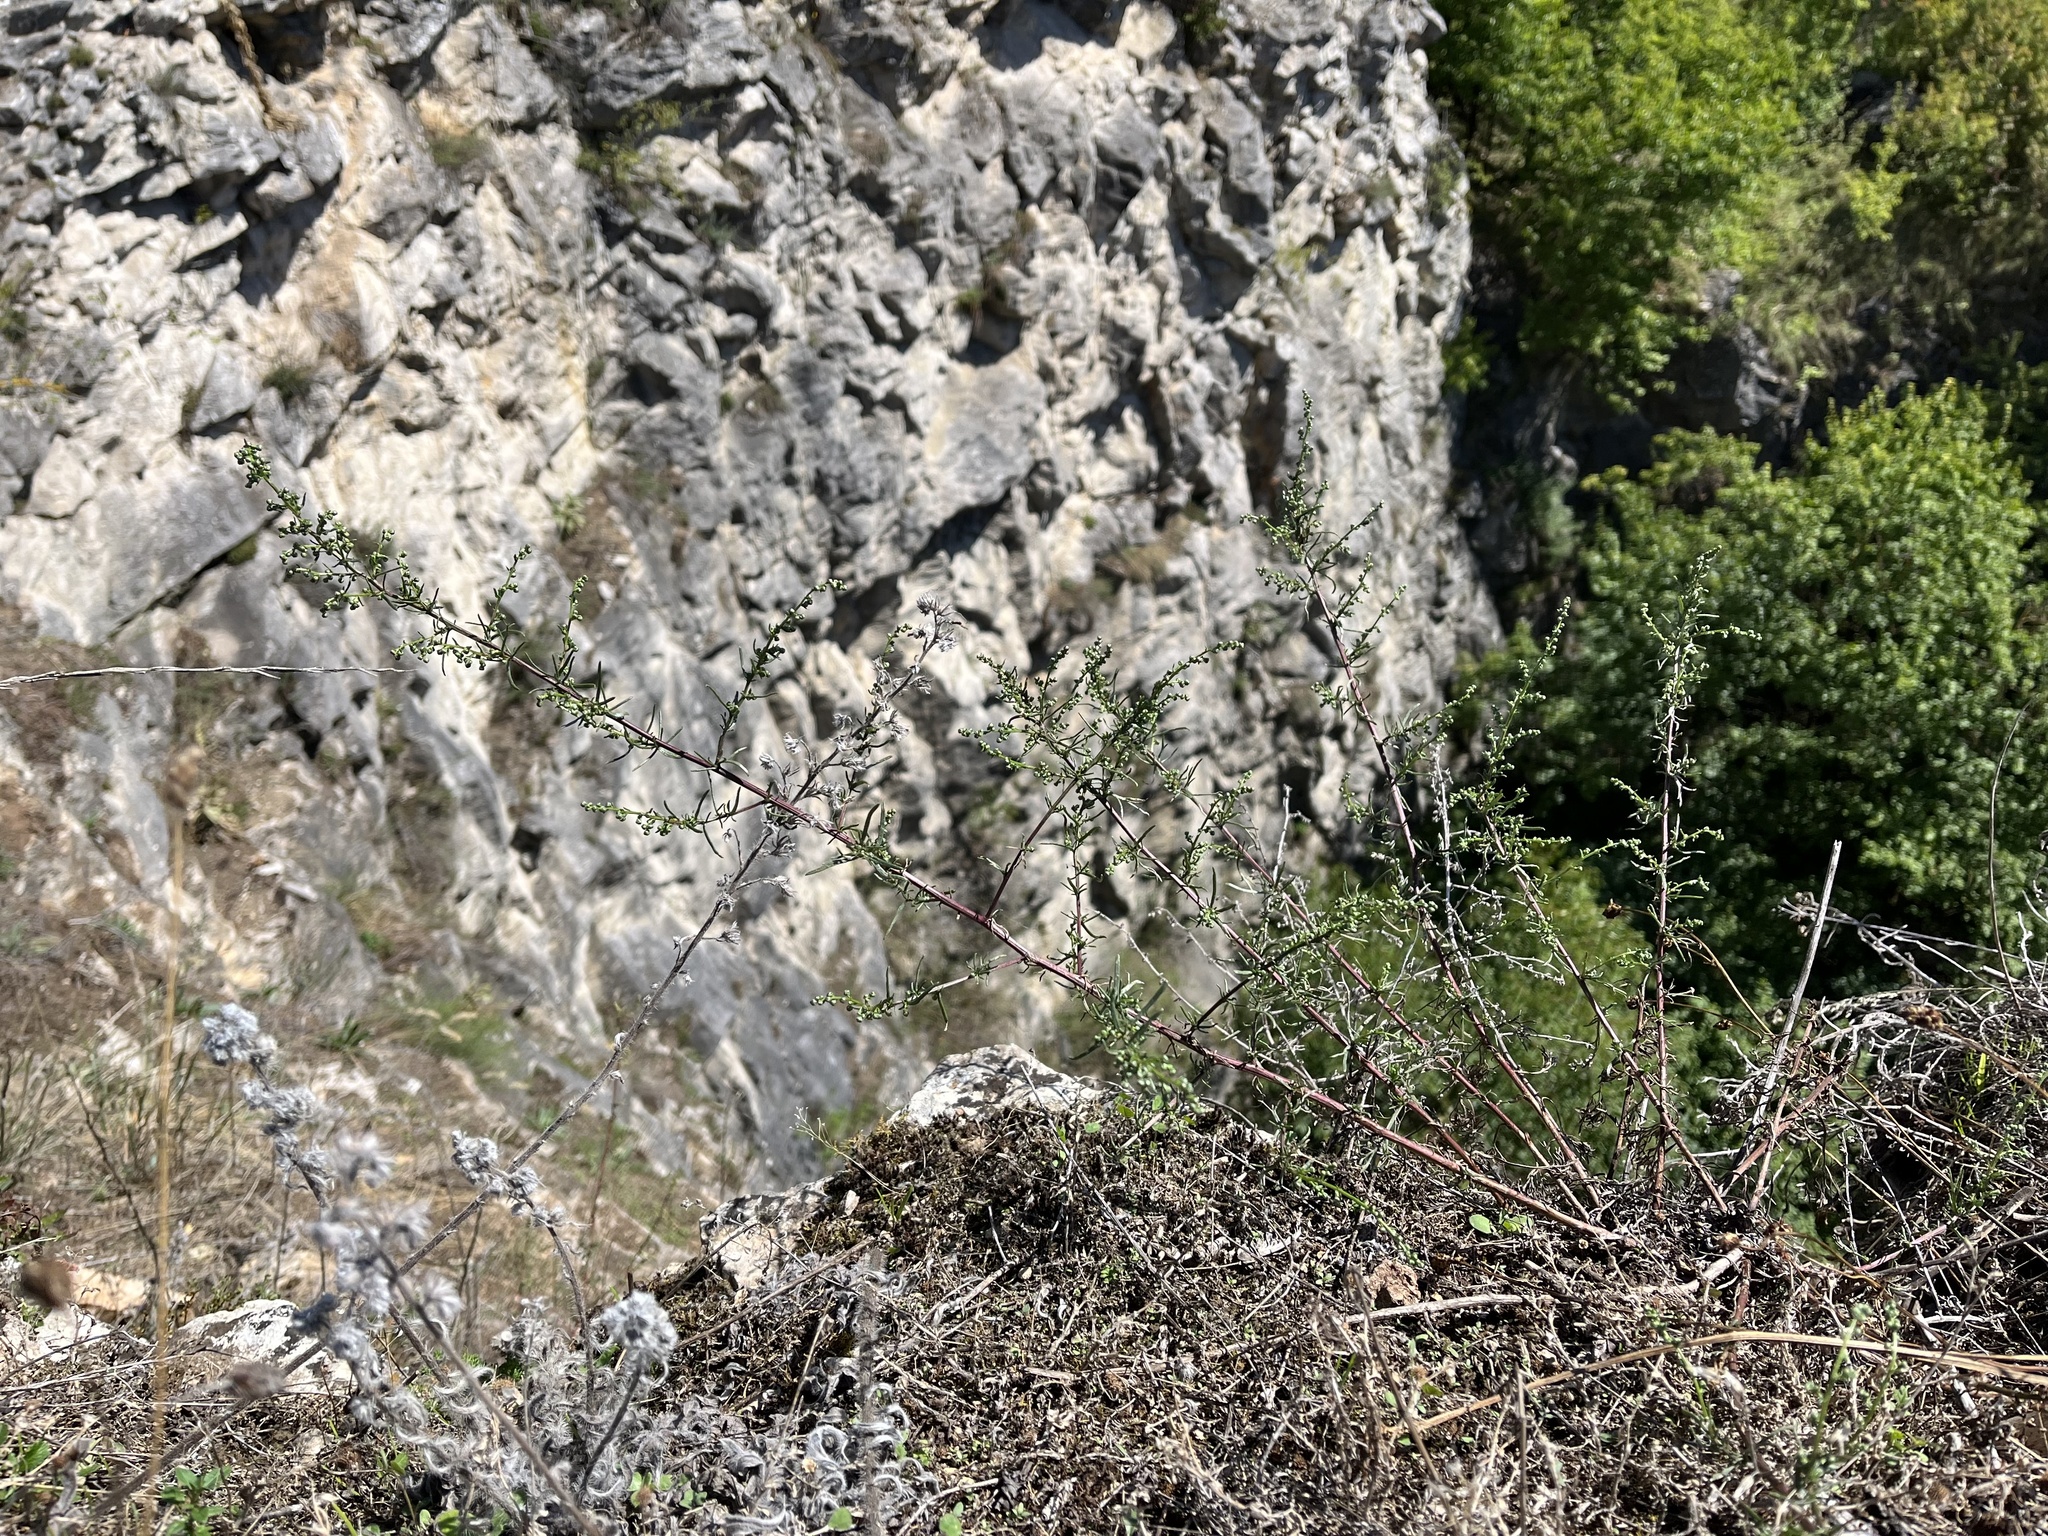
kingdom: Plantae
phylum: Tracheophyta
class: Magnoliopsida
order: Asterales
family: Asteraceae
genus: Artemisia
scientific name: Artemisia campestris
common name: Field wormwood
